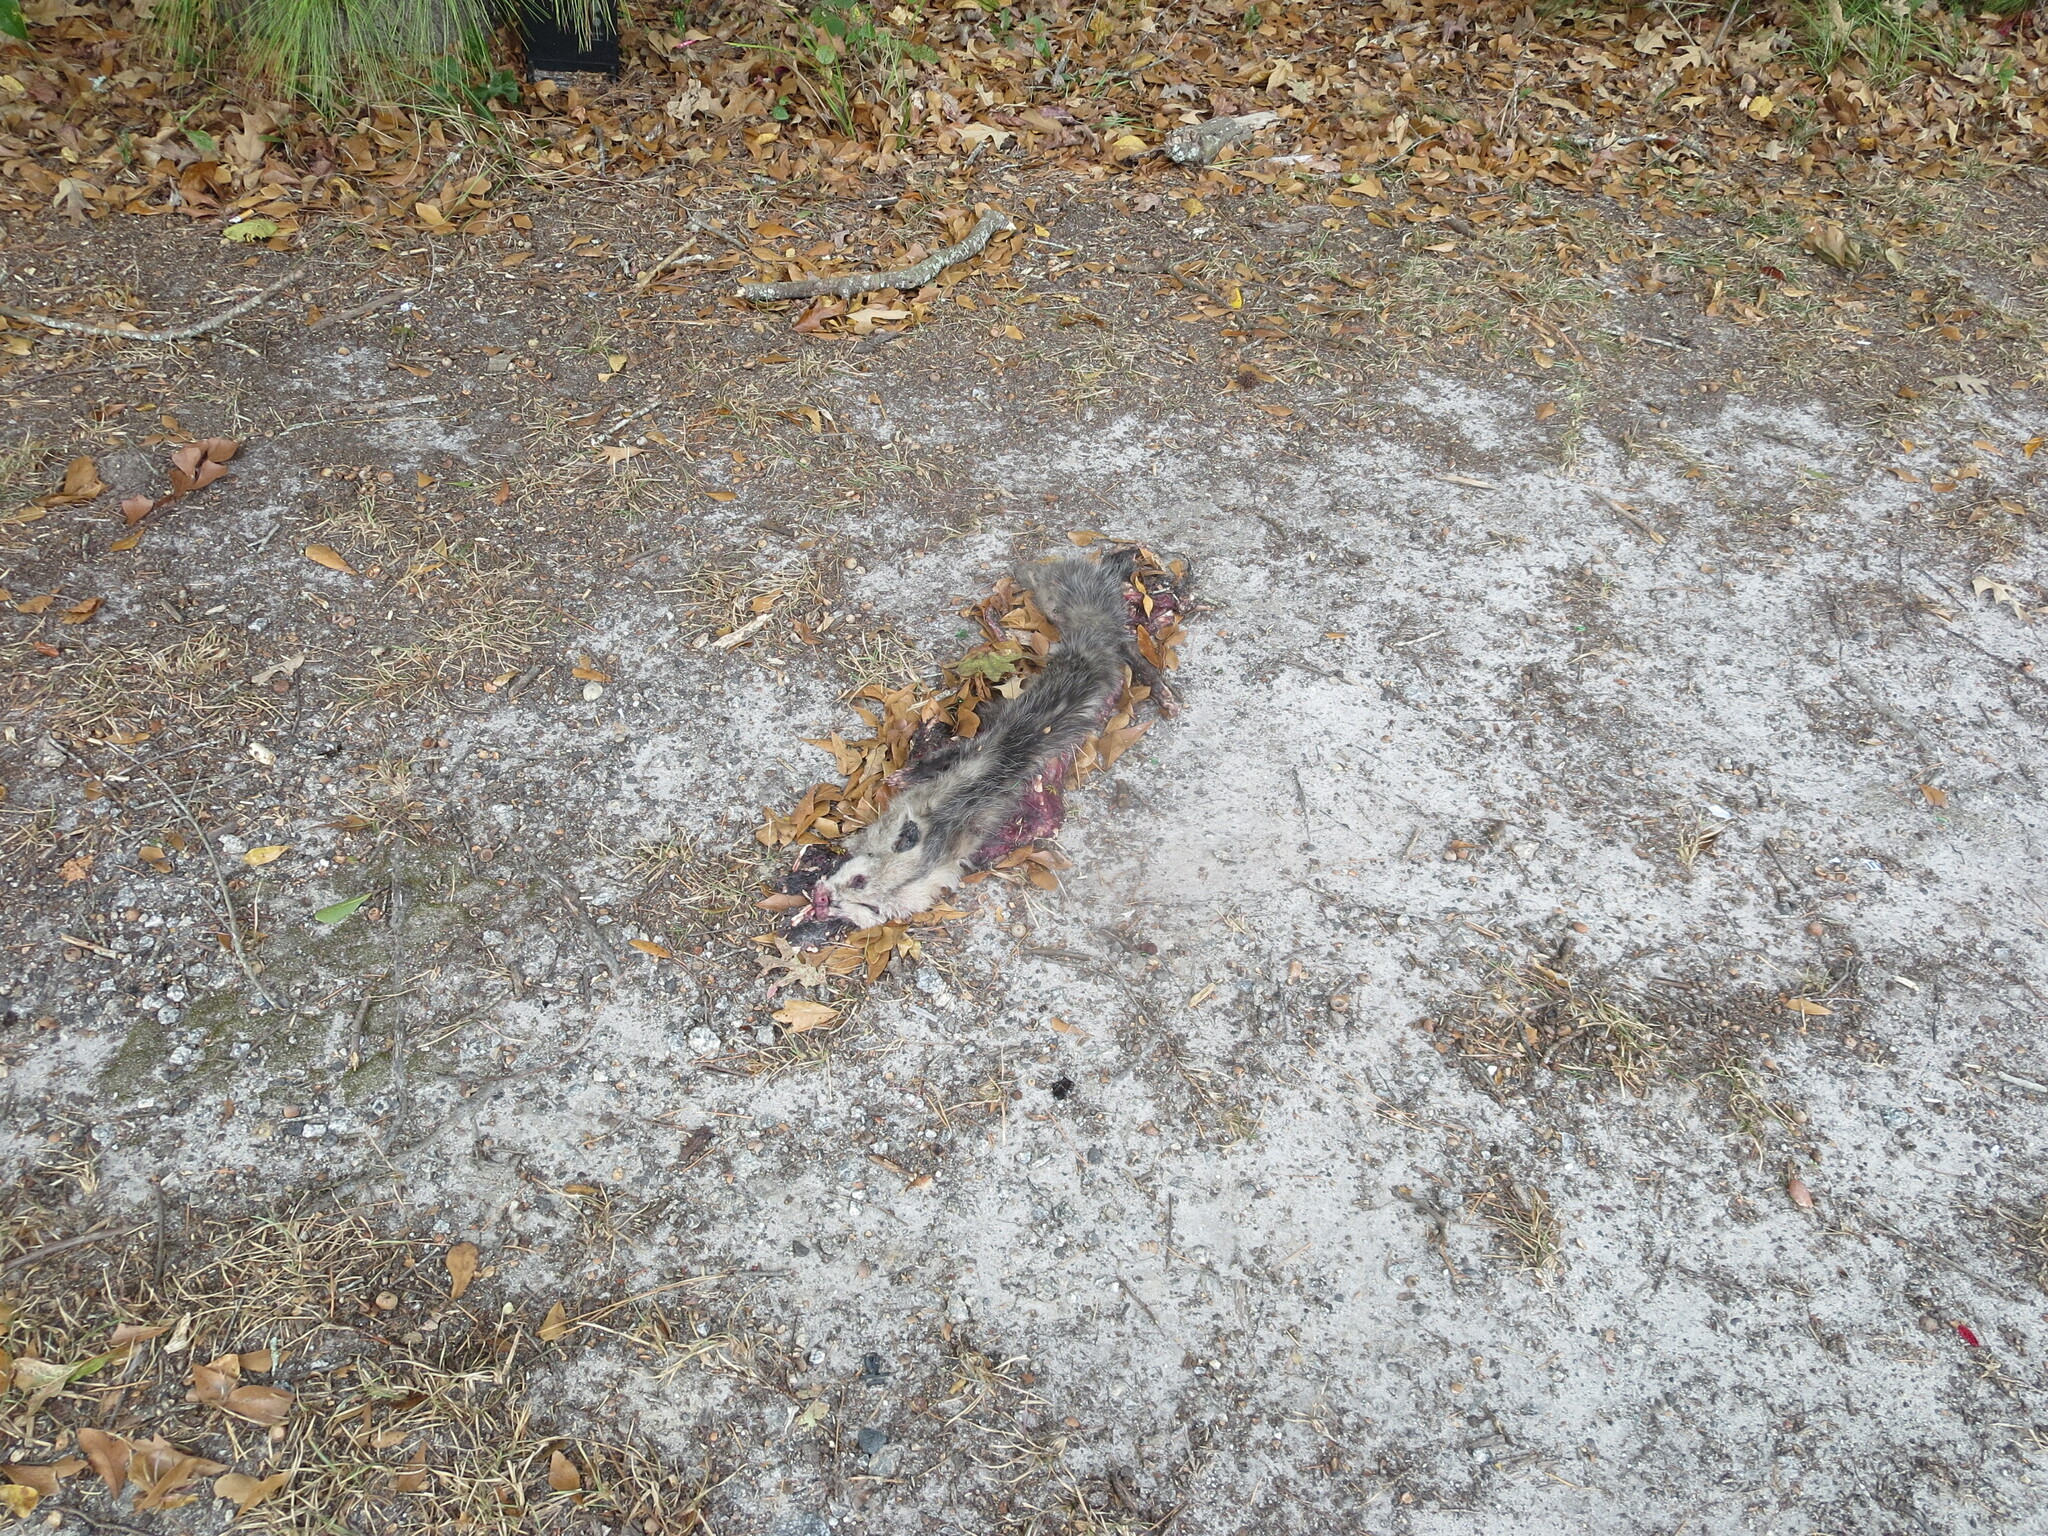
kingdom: Animalia
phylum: Chordata
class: Mammalia
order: Didelphimorphia
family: Didelphidae
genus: Didelphis
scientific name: Didelphis virginiana
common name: Virginia opossum
